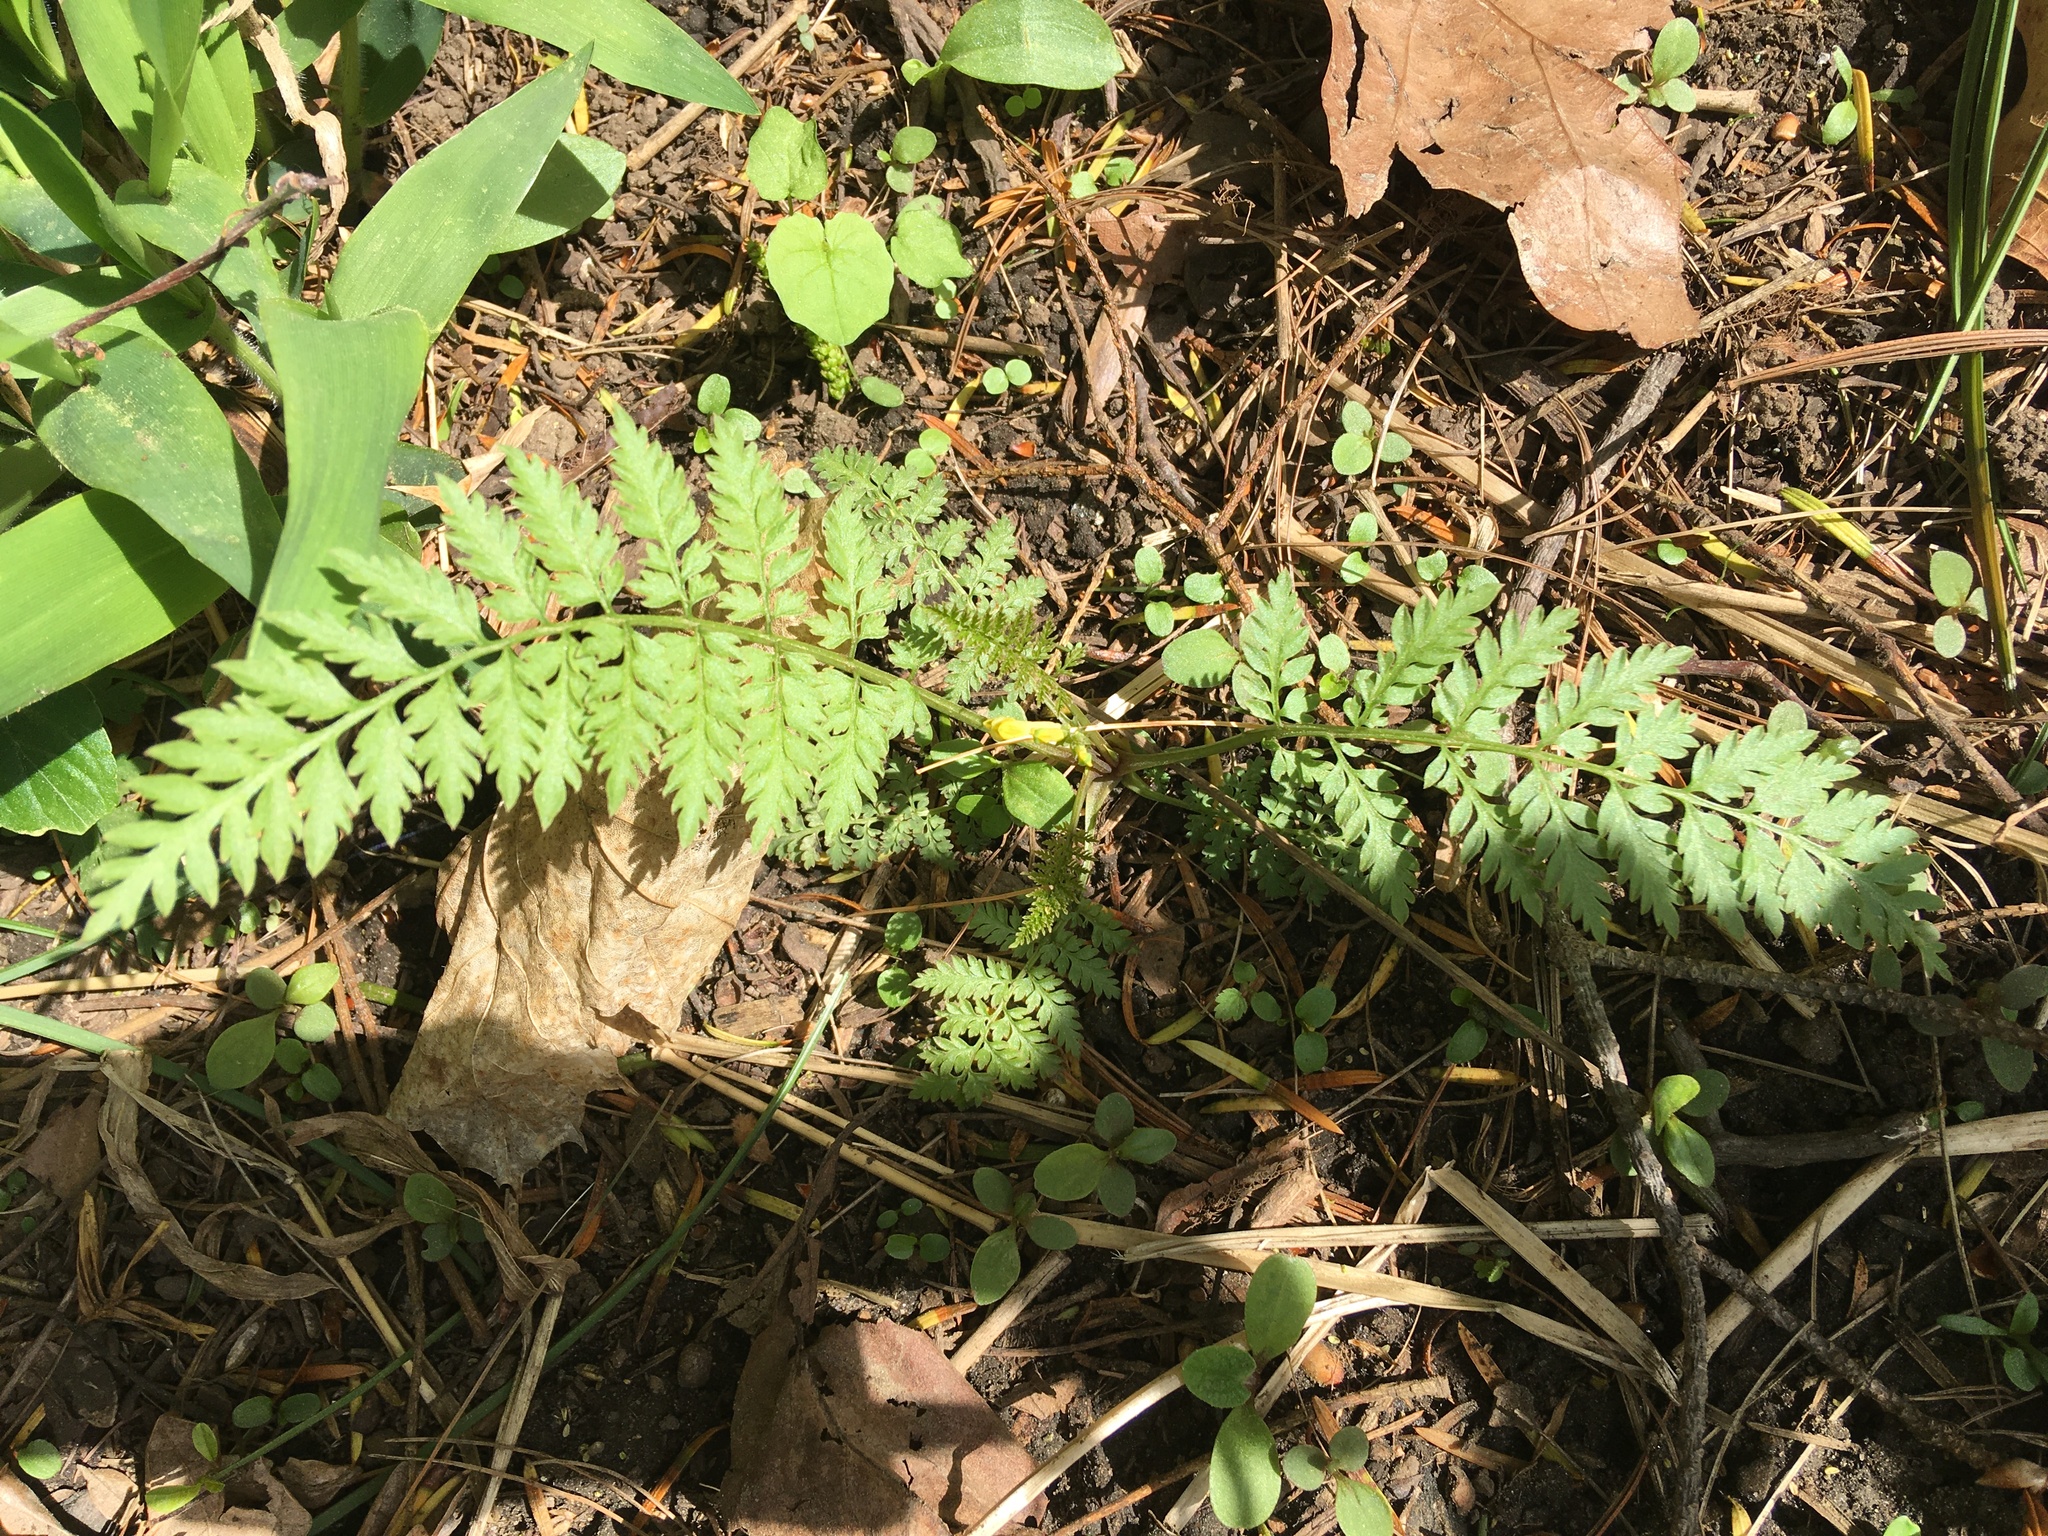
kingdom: Plantae
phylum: Tracheophyta
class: Magnoliopsida
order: Ranunculales
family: Papaveraceae
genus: Corydalis
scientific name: Corydalis cheilanthifolia
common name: Fern-leaved corydalis
